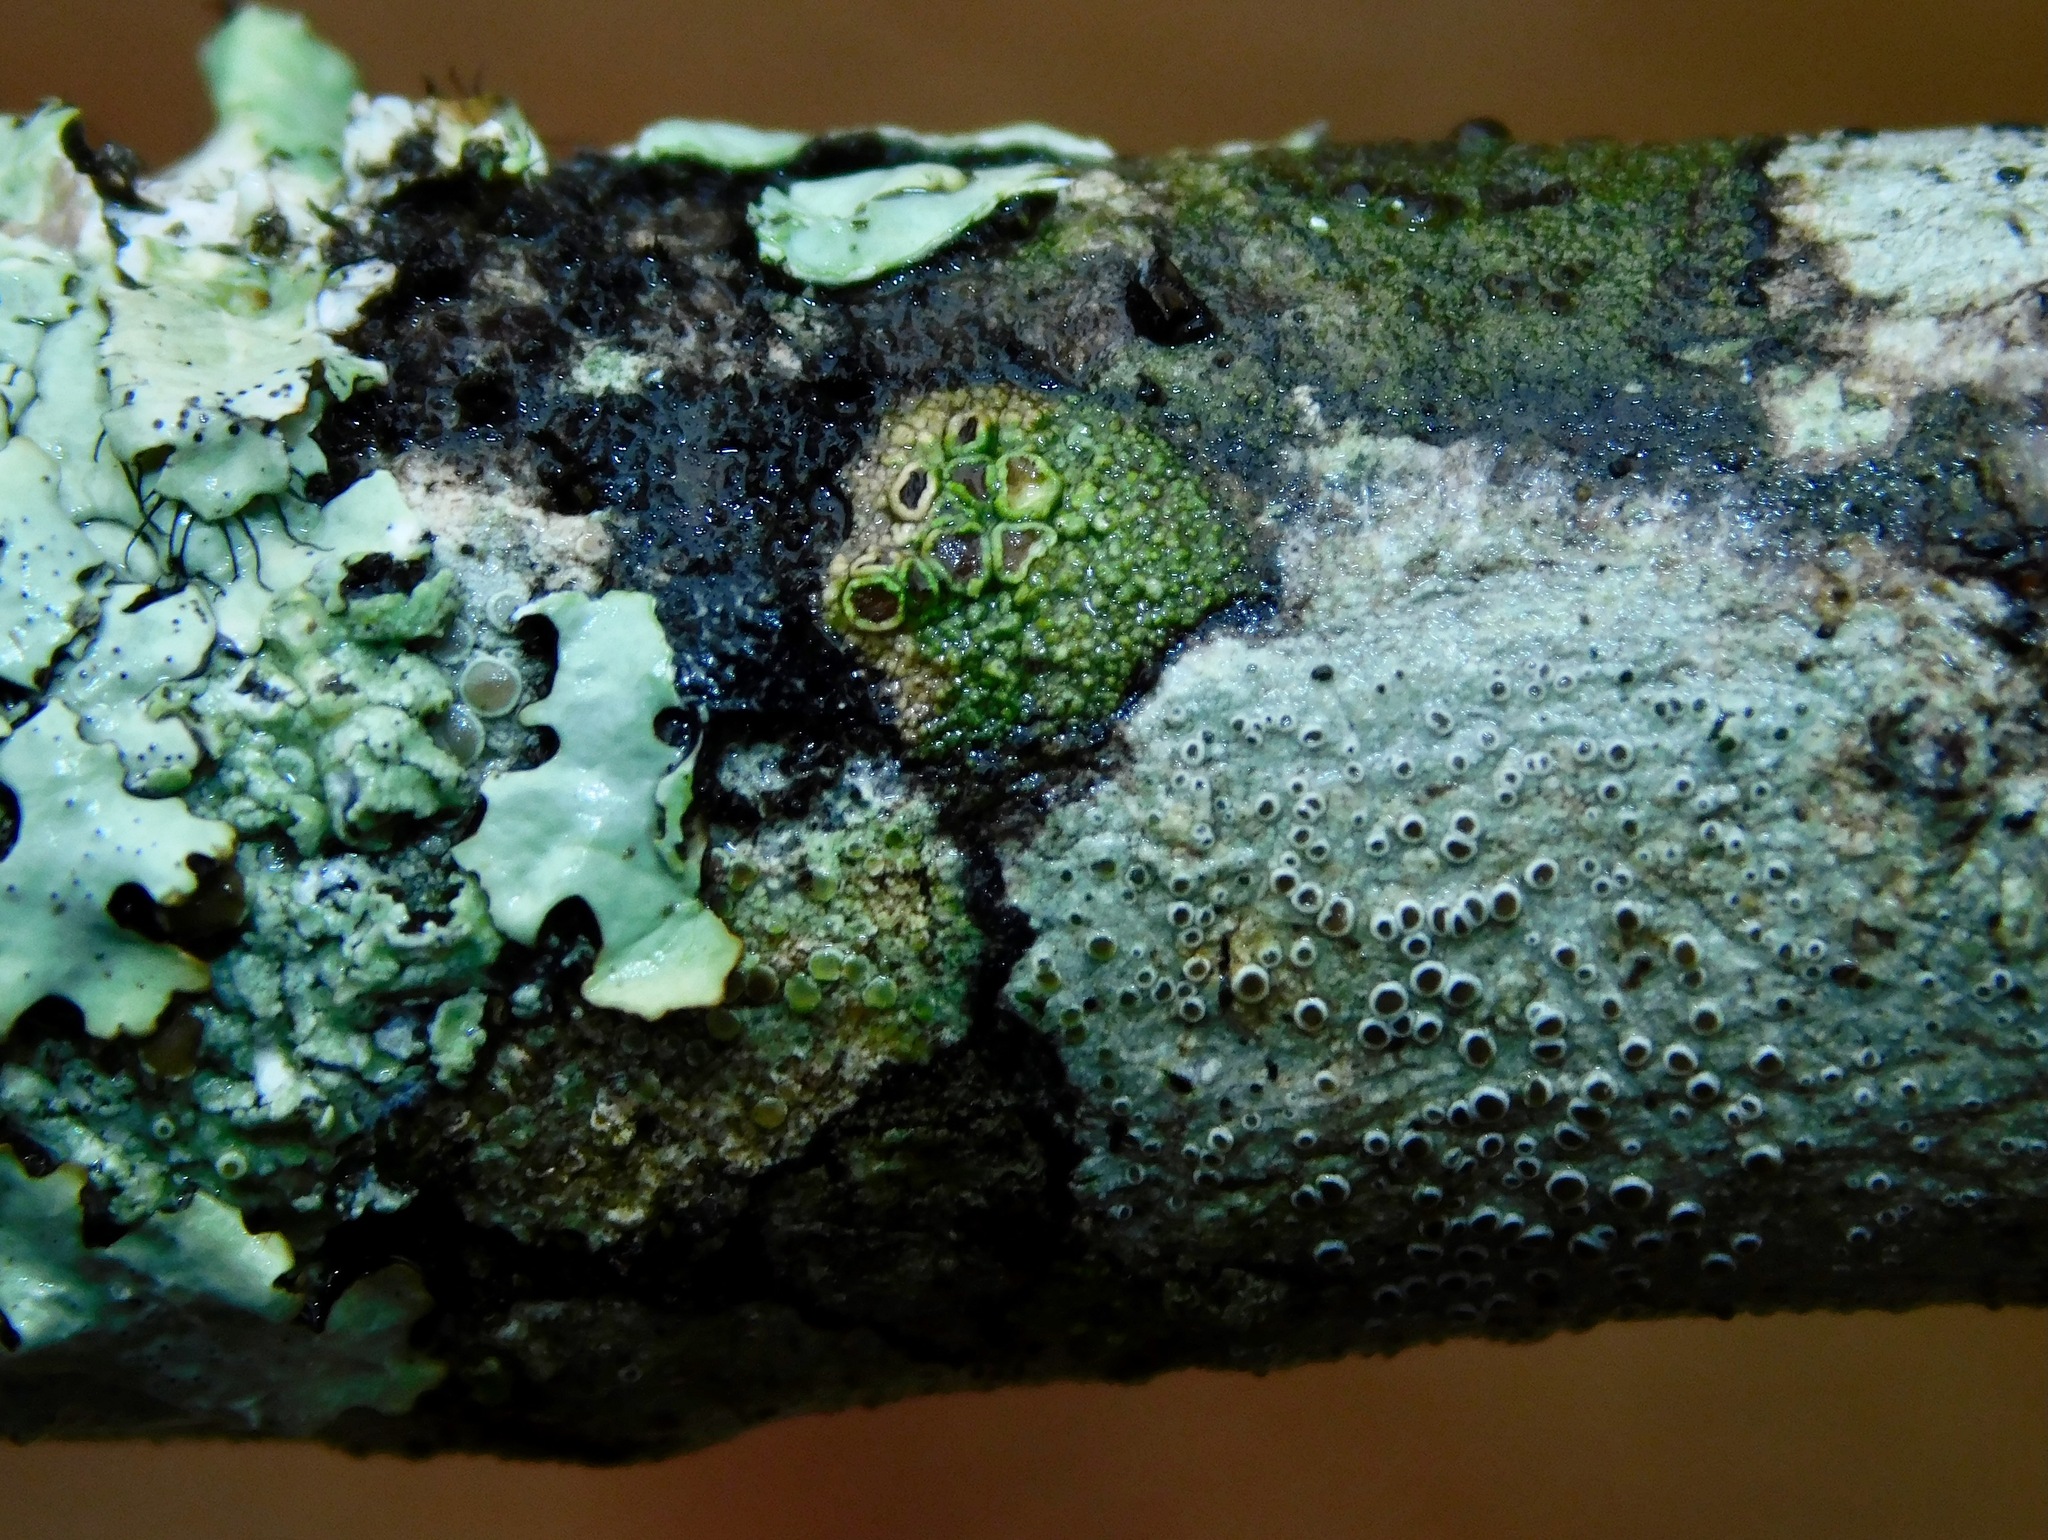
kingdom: Fungi
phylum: Ascomycota
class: Lecanoromycetes
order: Umbilicariales
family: Fuscideaceae
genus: Maronea
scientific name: Maronea polyphaea
